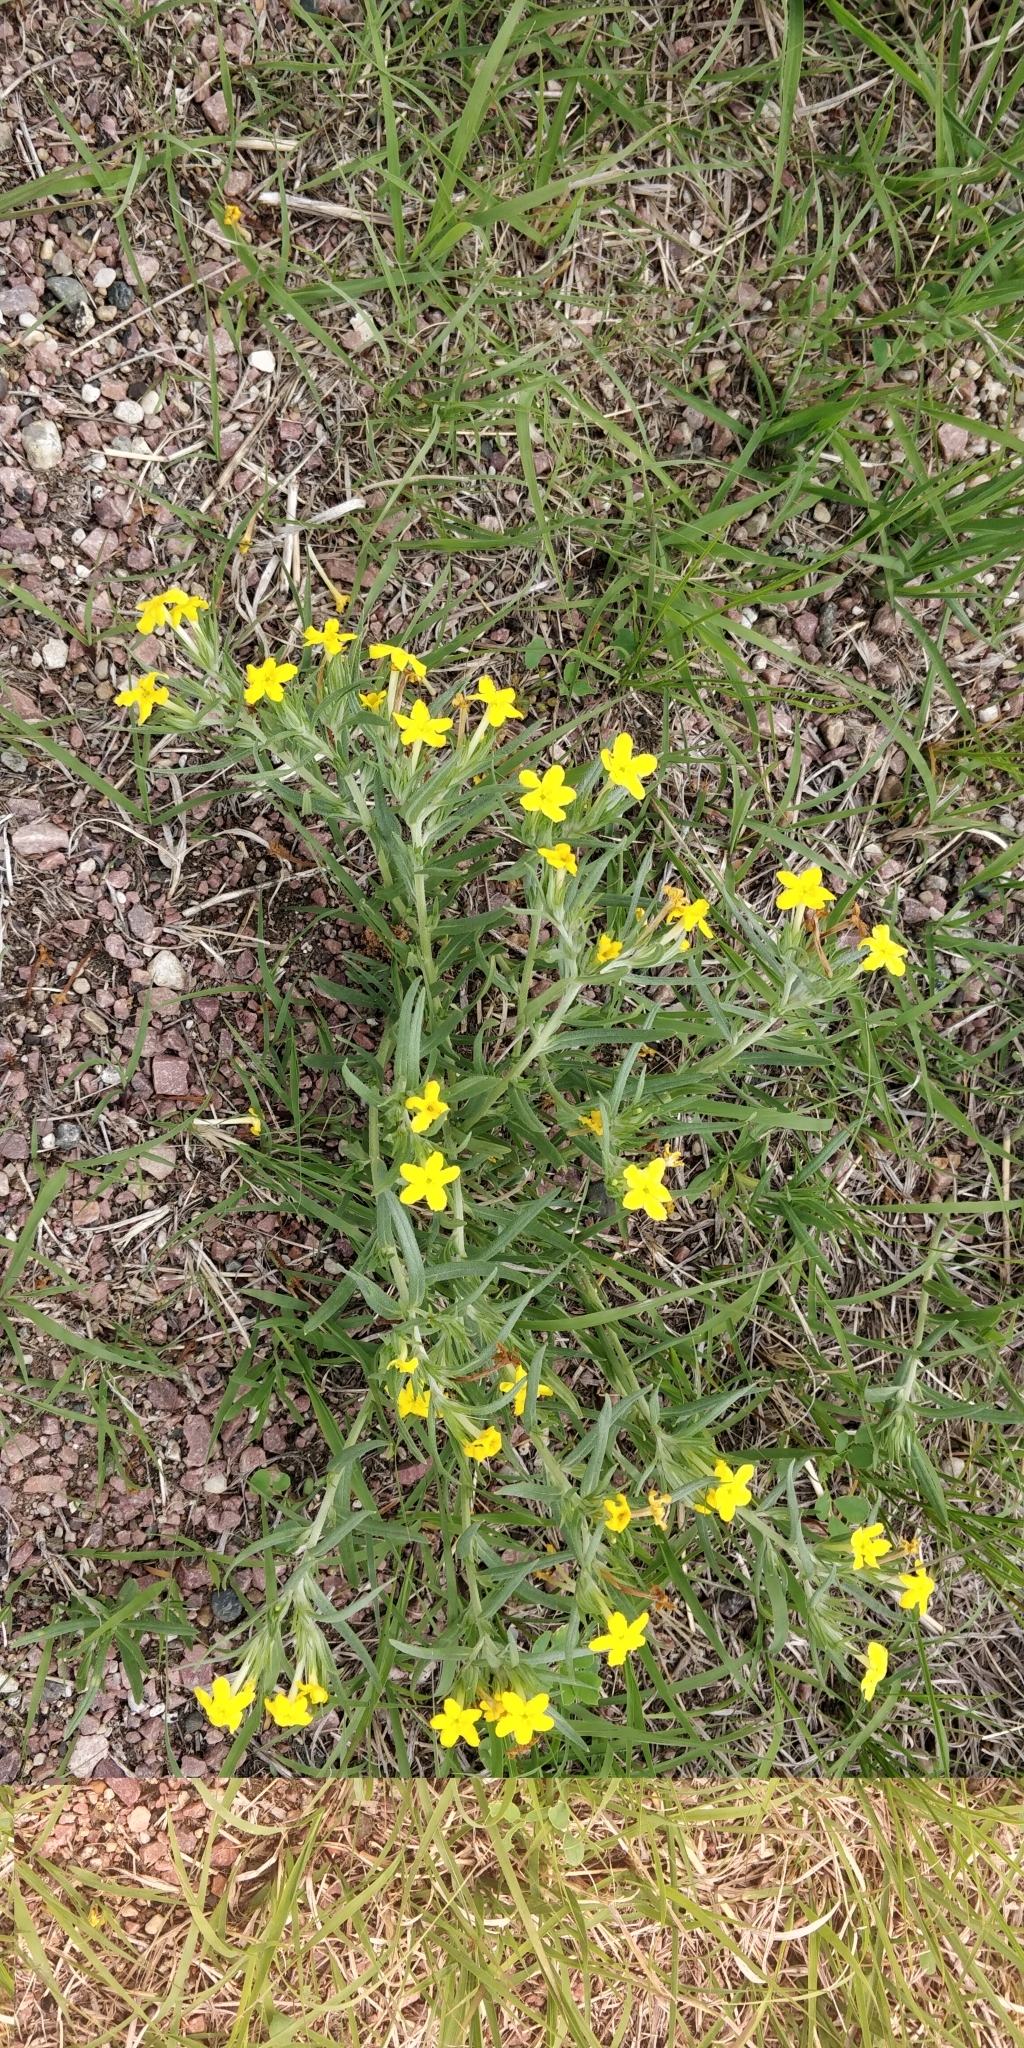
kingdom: Plantae
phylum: Tracheophyta
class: Magnoliopsida
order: Boraginales
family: Boraginaceae
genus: Lithospermum
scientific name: Lithospermum incisum
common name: Fringed gromwell
